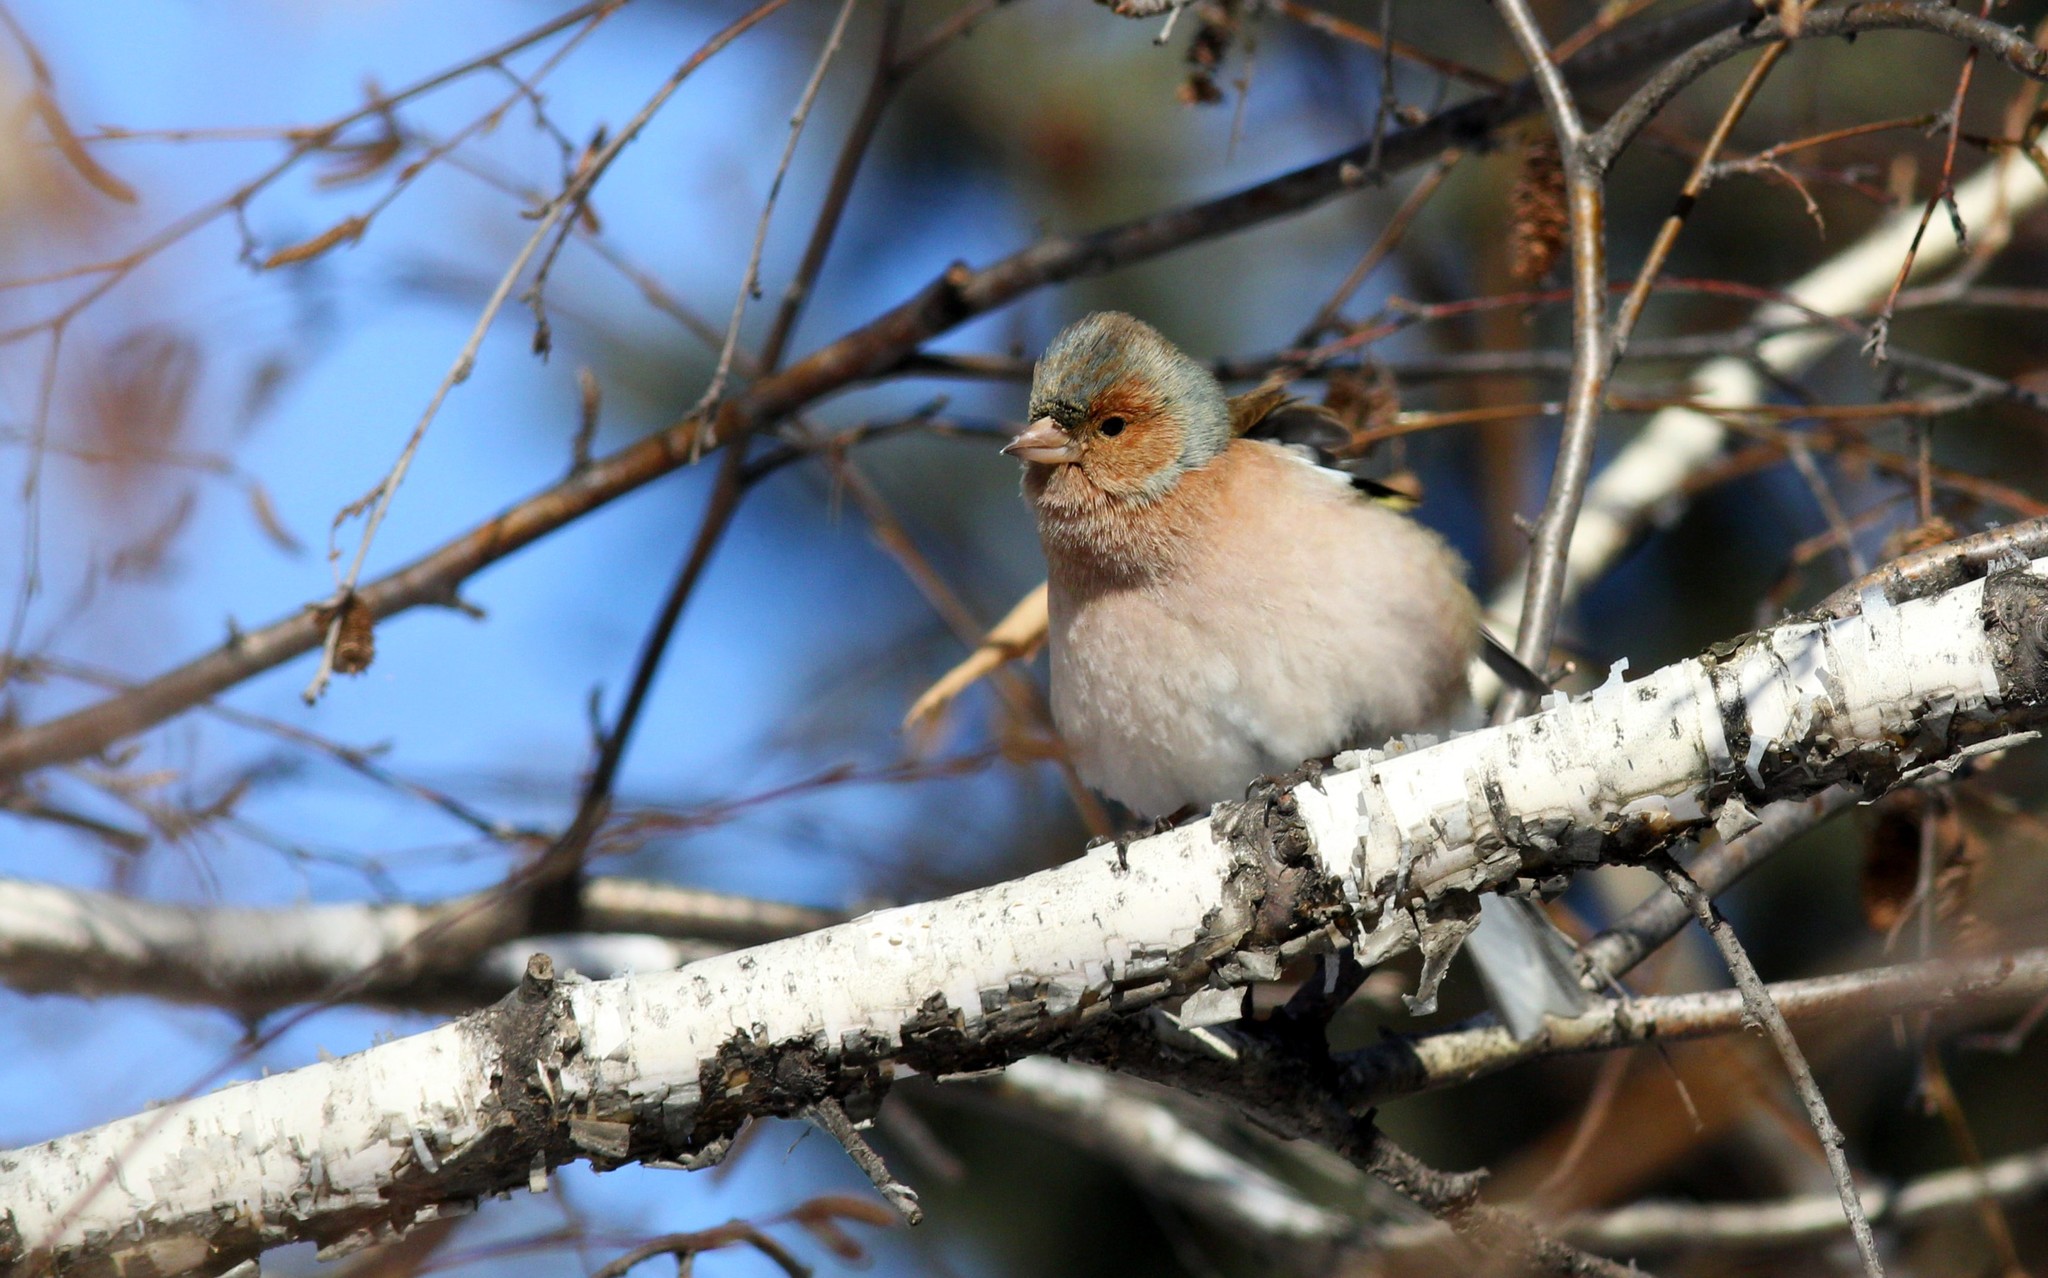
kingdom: Animalia
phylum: Chordata
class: Aves
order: Passeriformes
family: Fringillidae
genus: Fringilla
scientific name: Fringilla coelebs
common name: Common chaffinch
